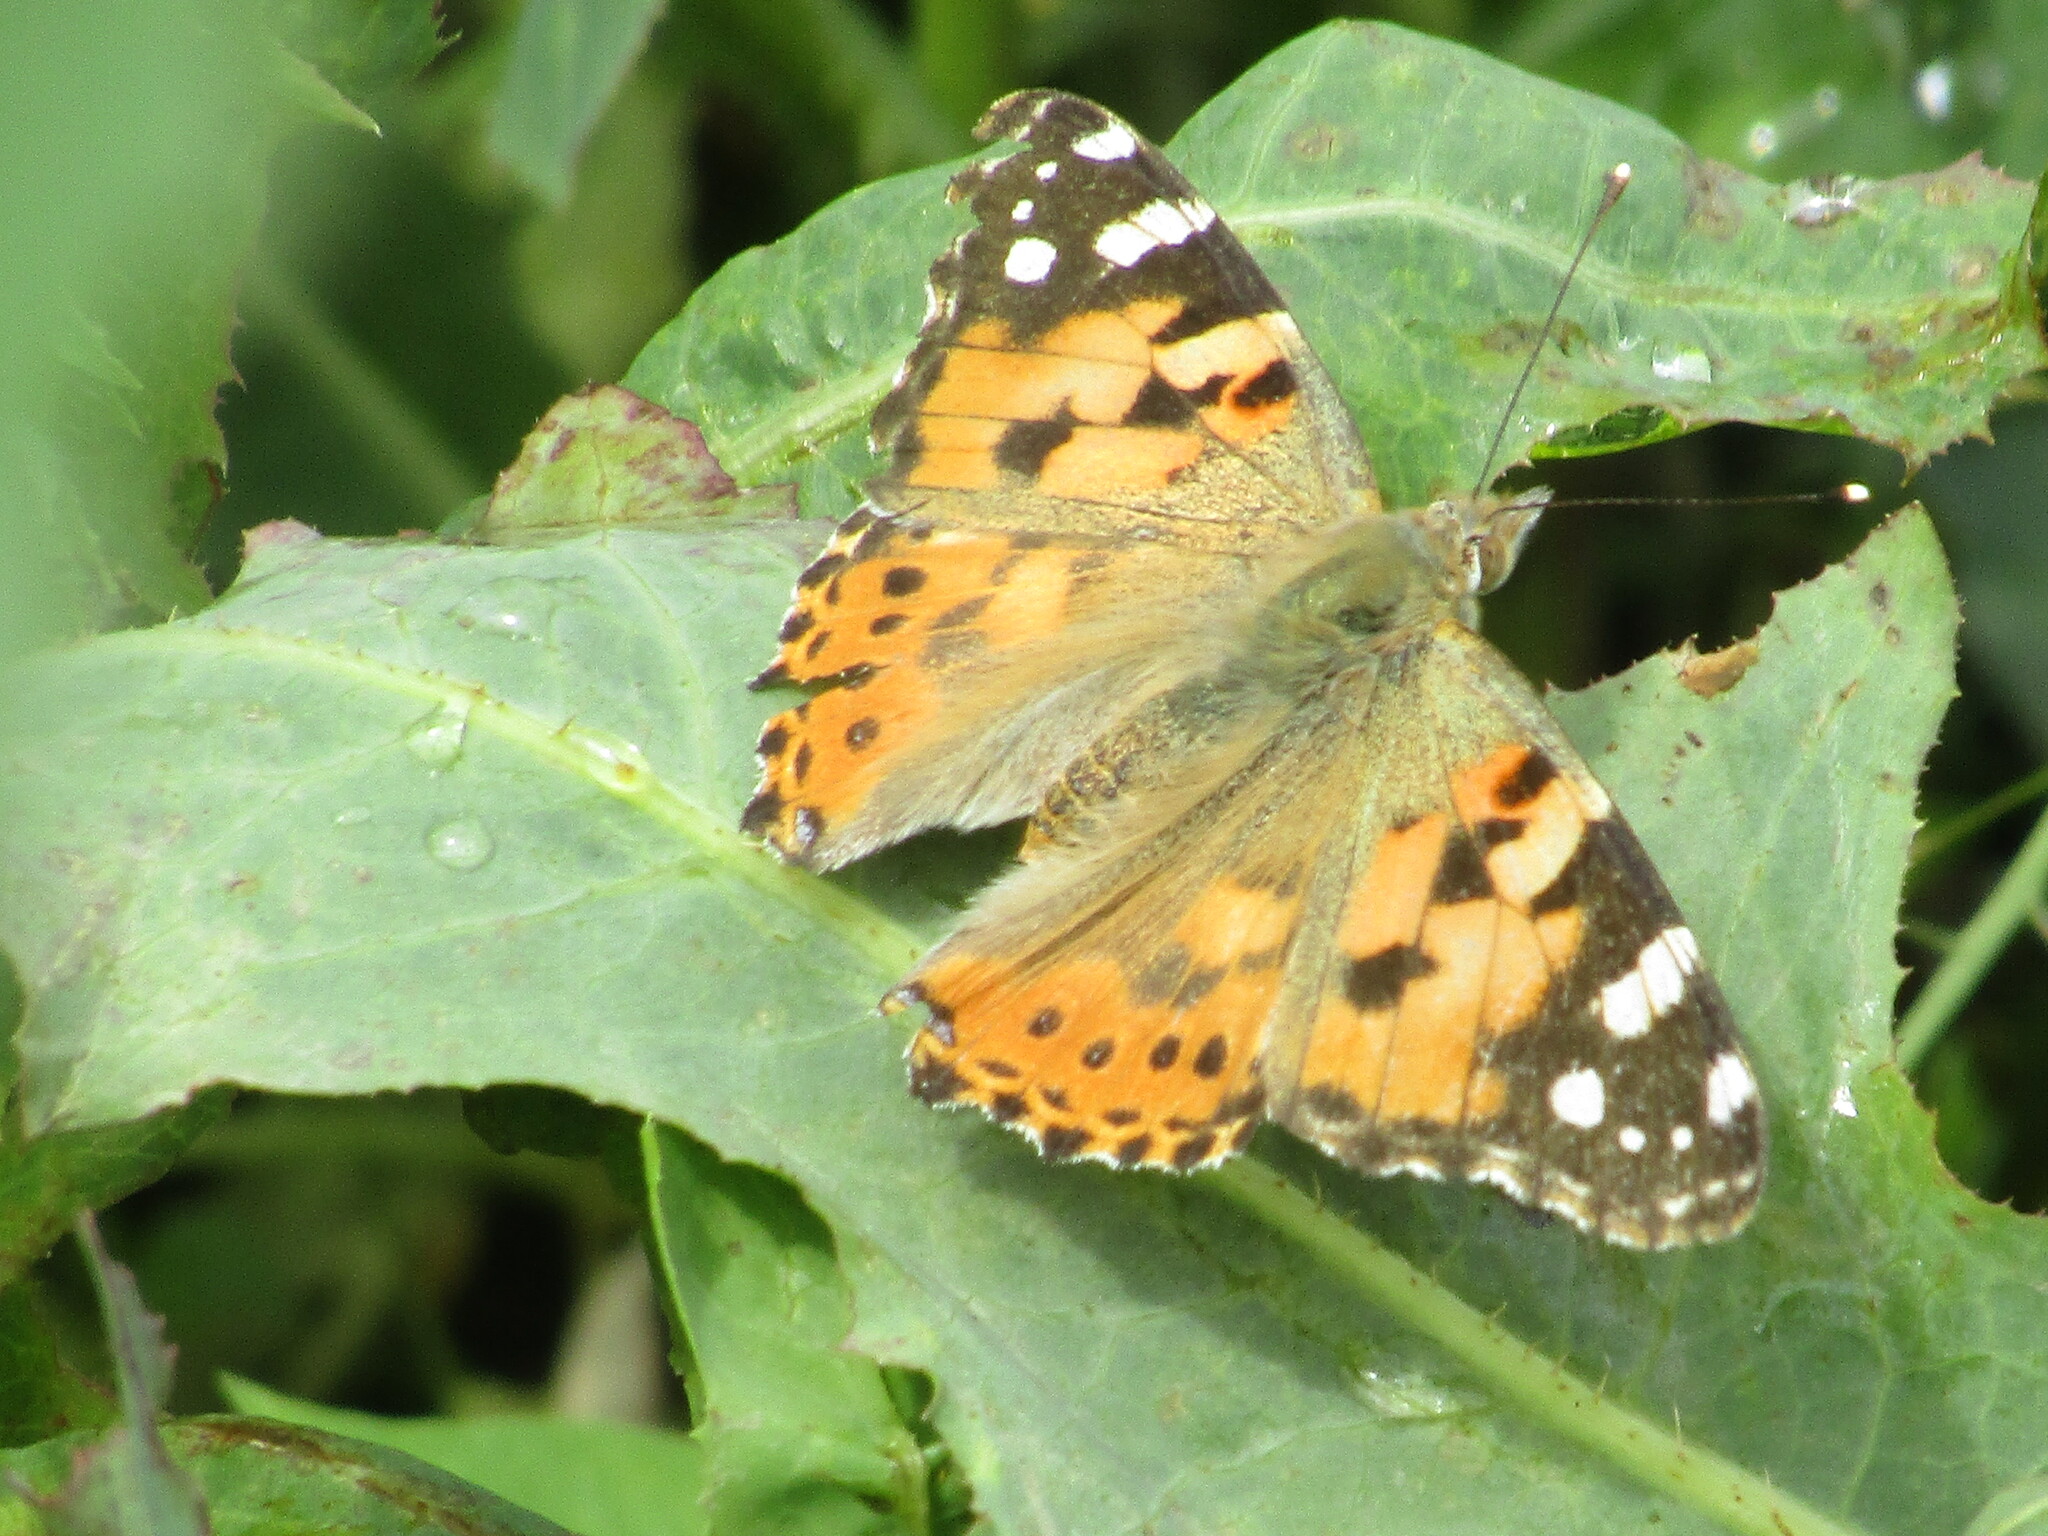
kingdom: Animalia
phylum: Arthropoda
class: Insecta
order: Lepidoptera
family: Nymphalidae
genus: Vanessa
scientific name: Vanessa cardui
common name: Painted lady
